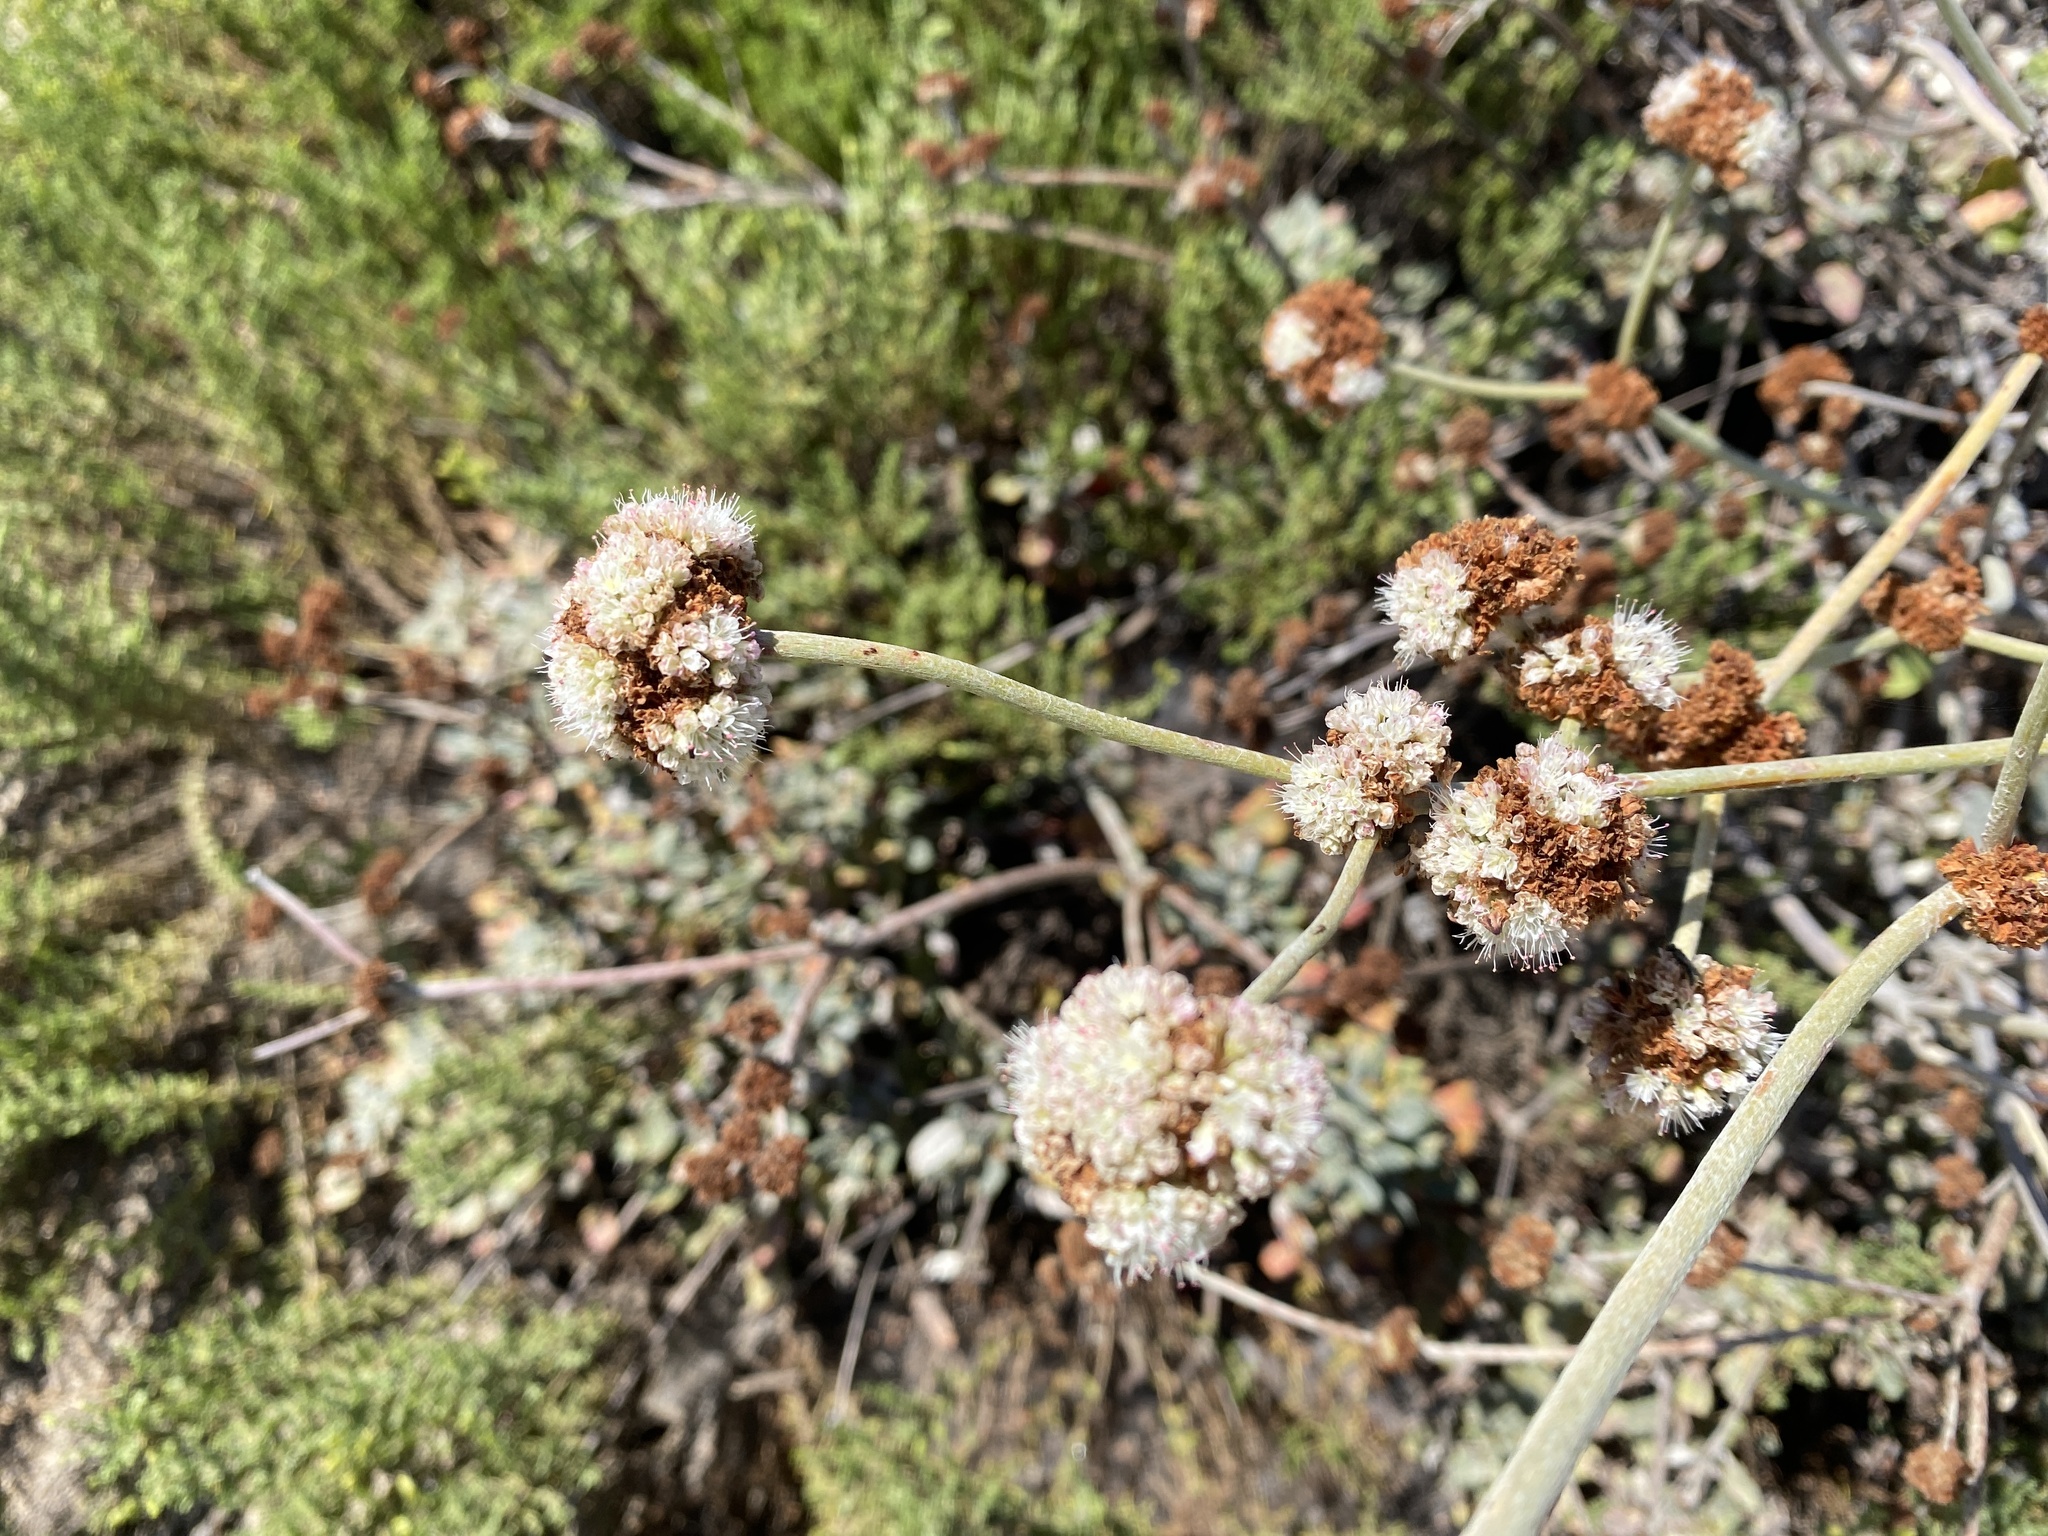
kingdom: Plantae
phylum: Tracheophyta
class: Magnoliopsida
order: Caryophyllales
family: Polygonaceae
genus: Eriogonum
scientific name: Eriogonum latifolium
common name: Seaside wild buckwheat
